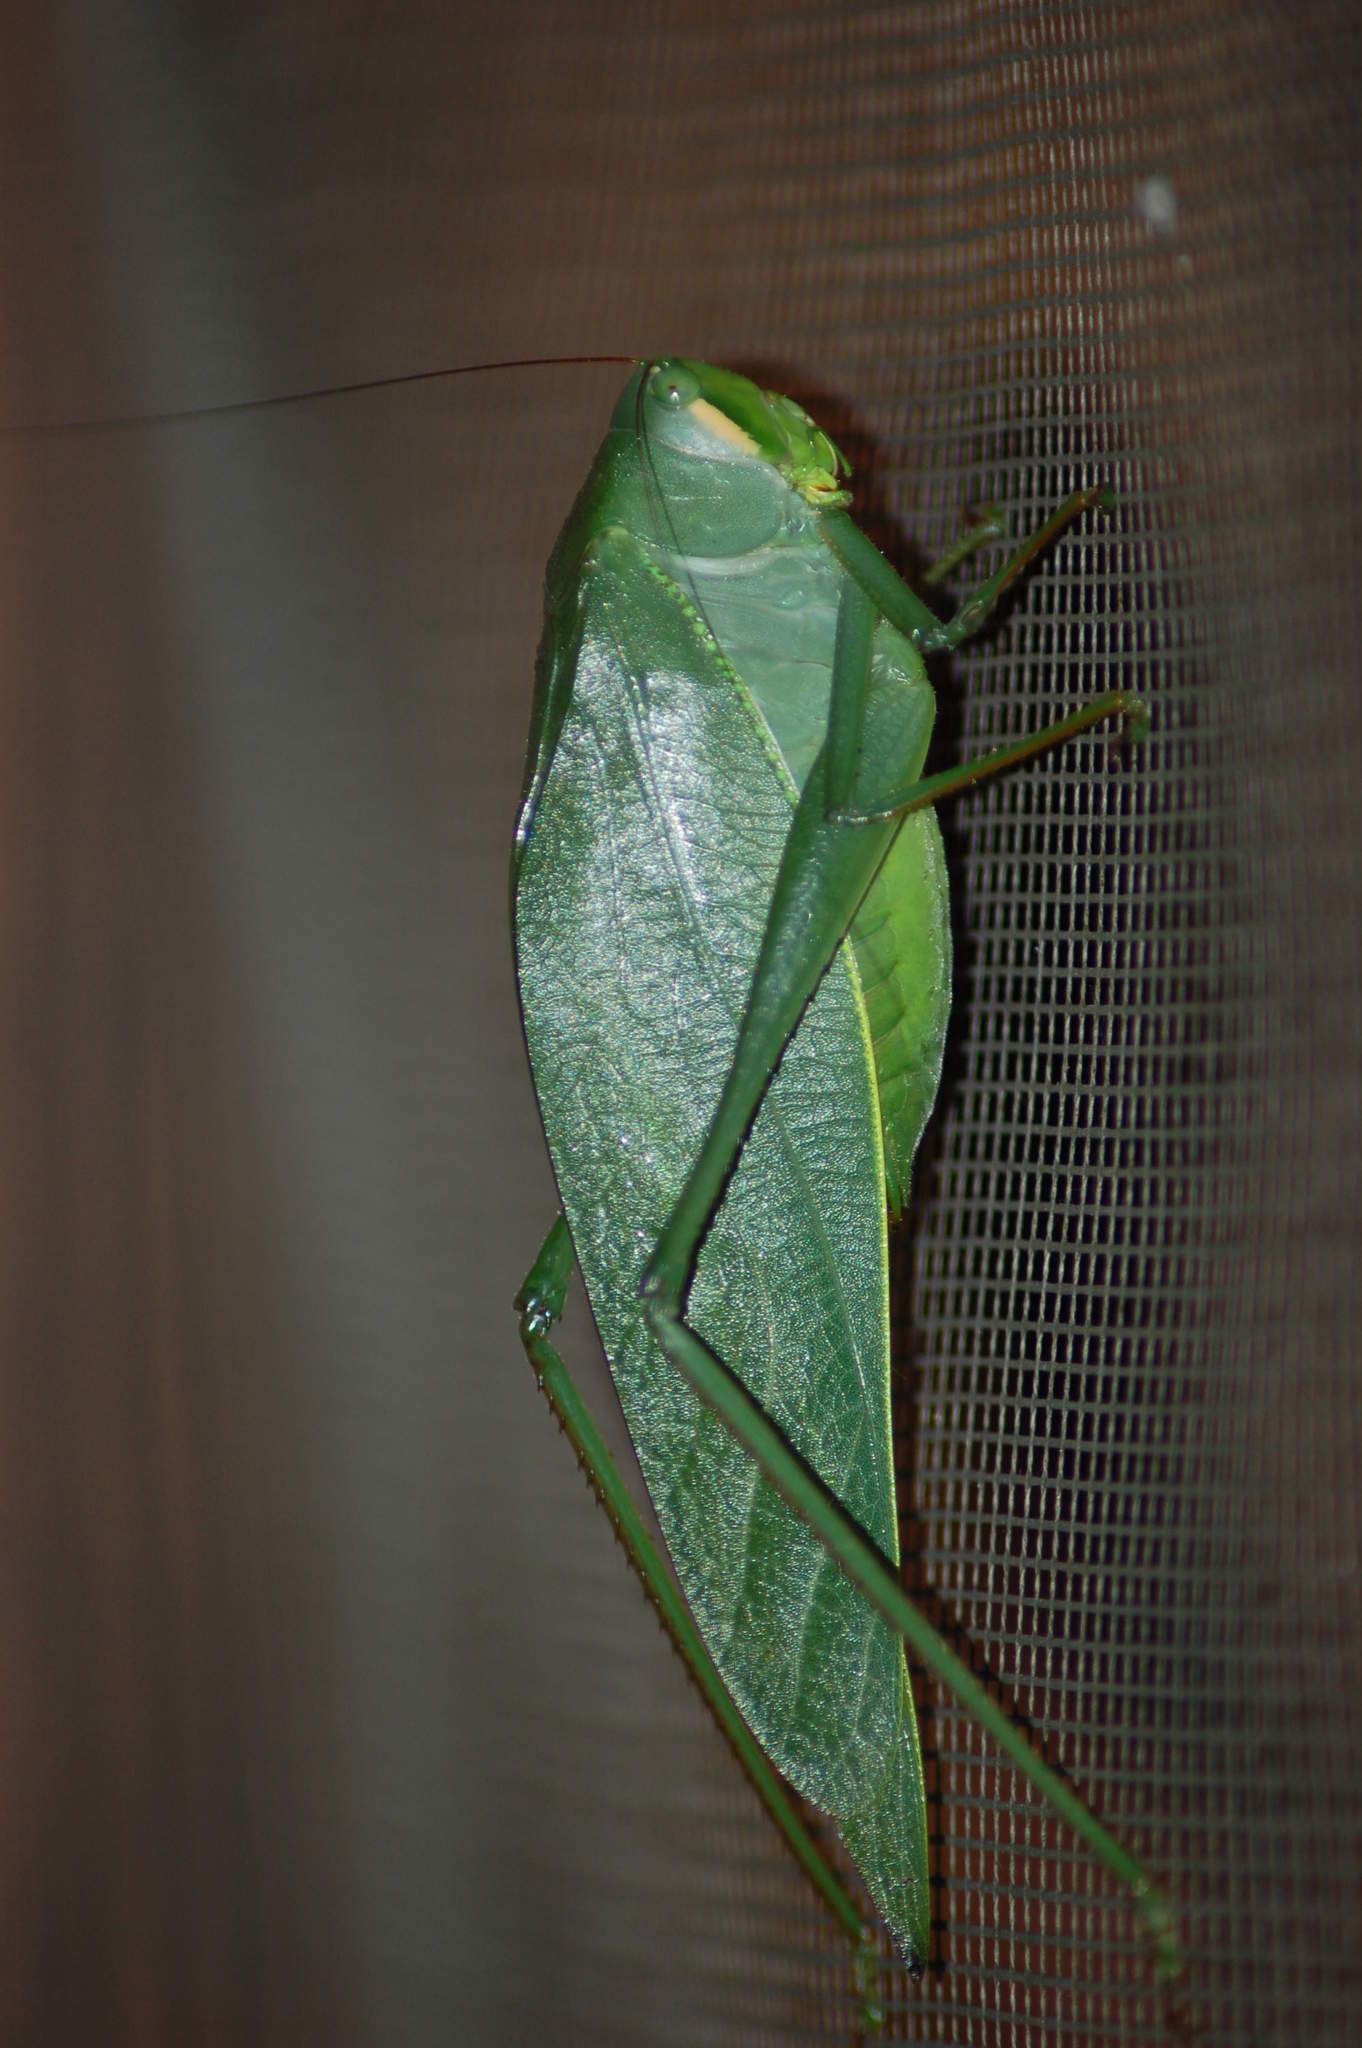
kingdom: Animalia
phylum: Arthropoda
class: Insecta
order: Orthoptera
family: Tettigoniidae
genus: Philophyllia
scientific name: Philophyllia ingens
